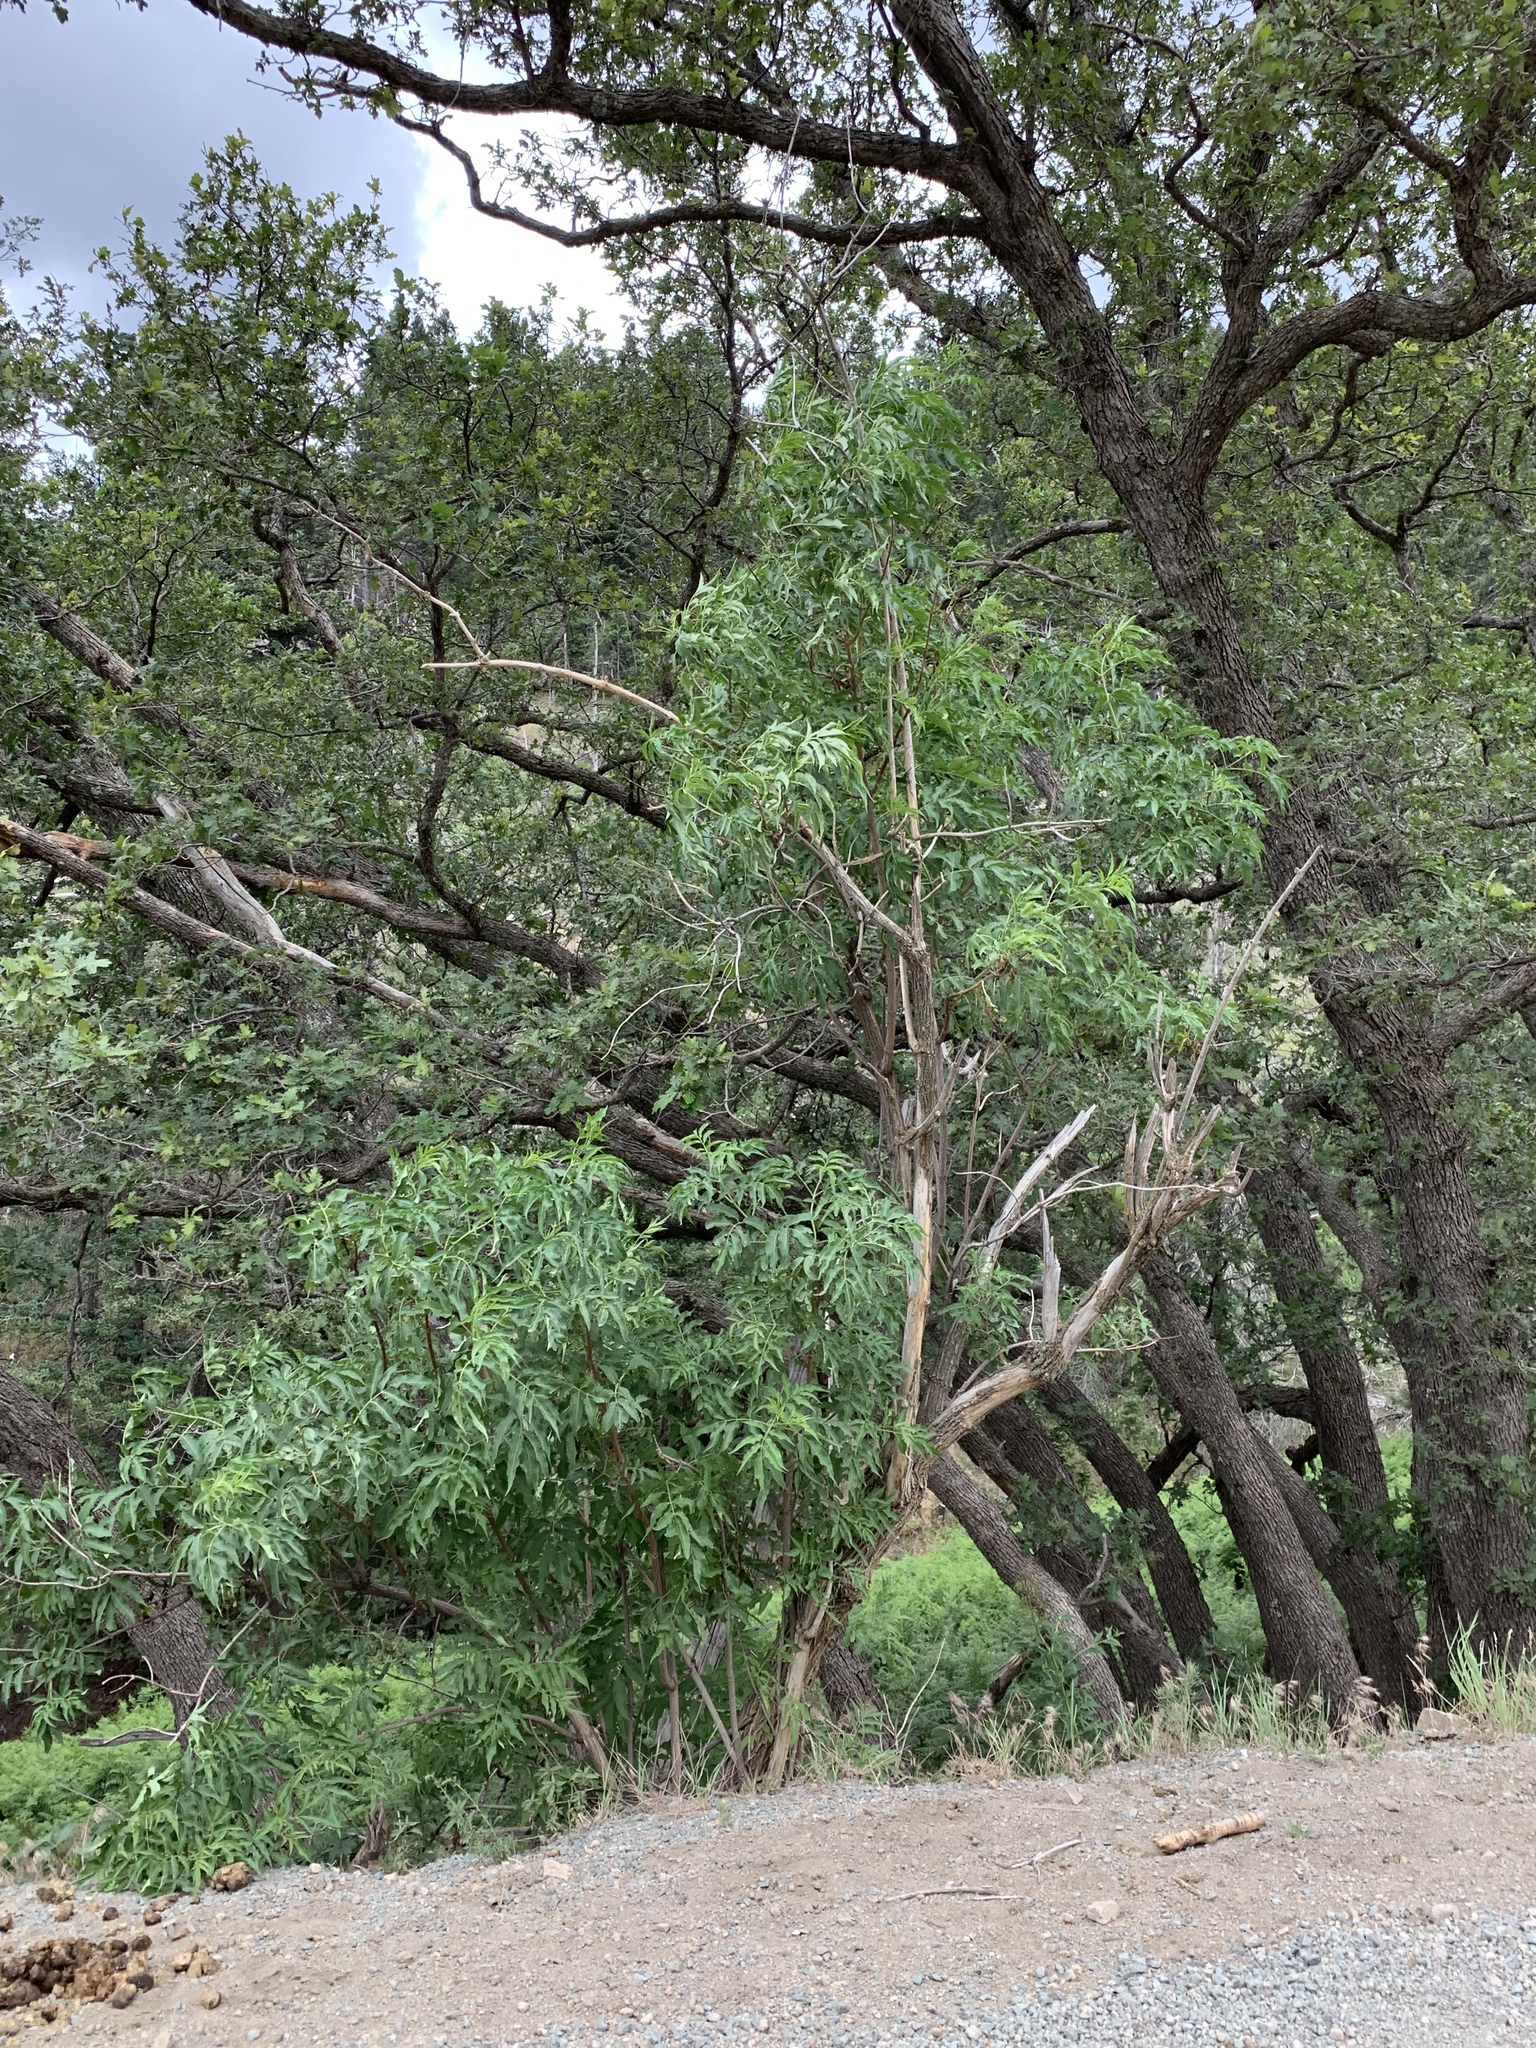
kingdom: Plantae
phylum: Tracheophyta
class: Magnoliopsida
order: Dipsacales
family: Viburnaceae
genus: Sambucus
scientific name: Sambucus cerulea
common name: Blue elder
